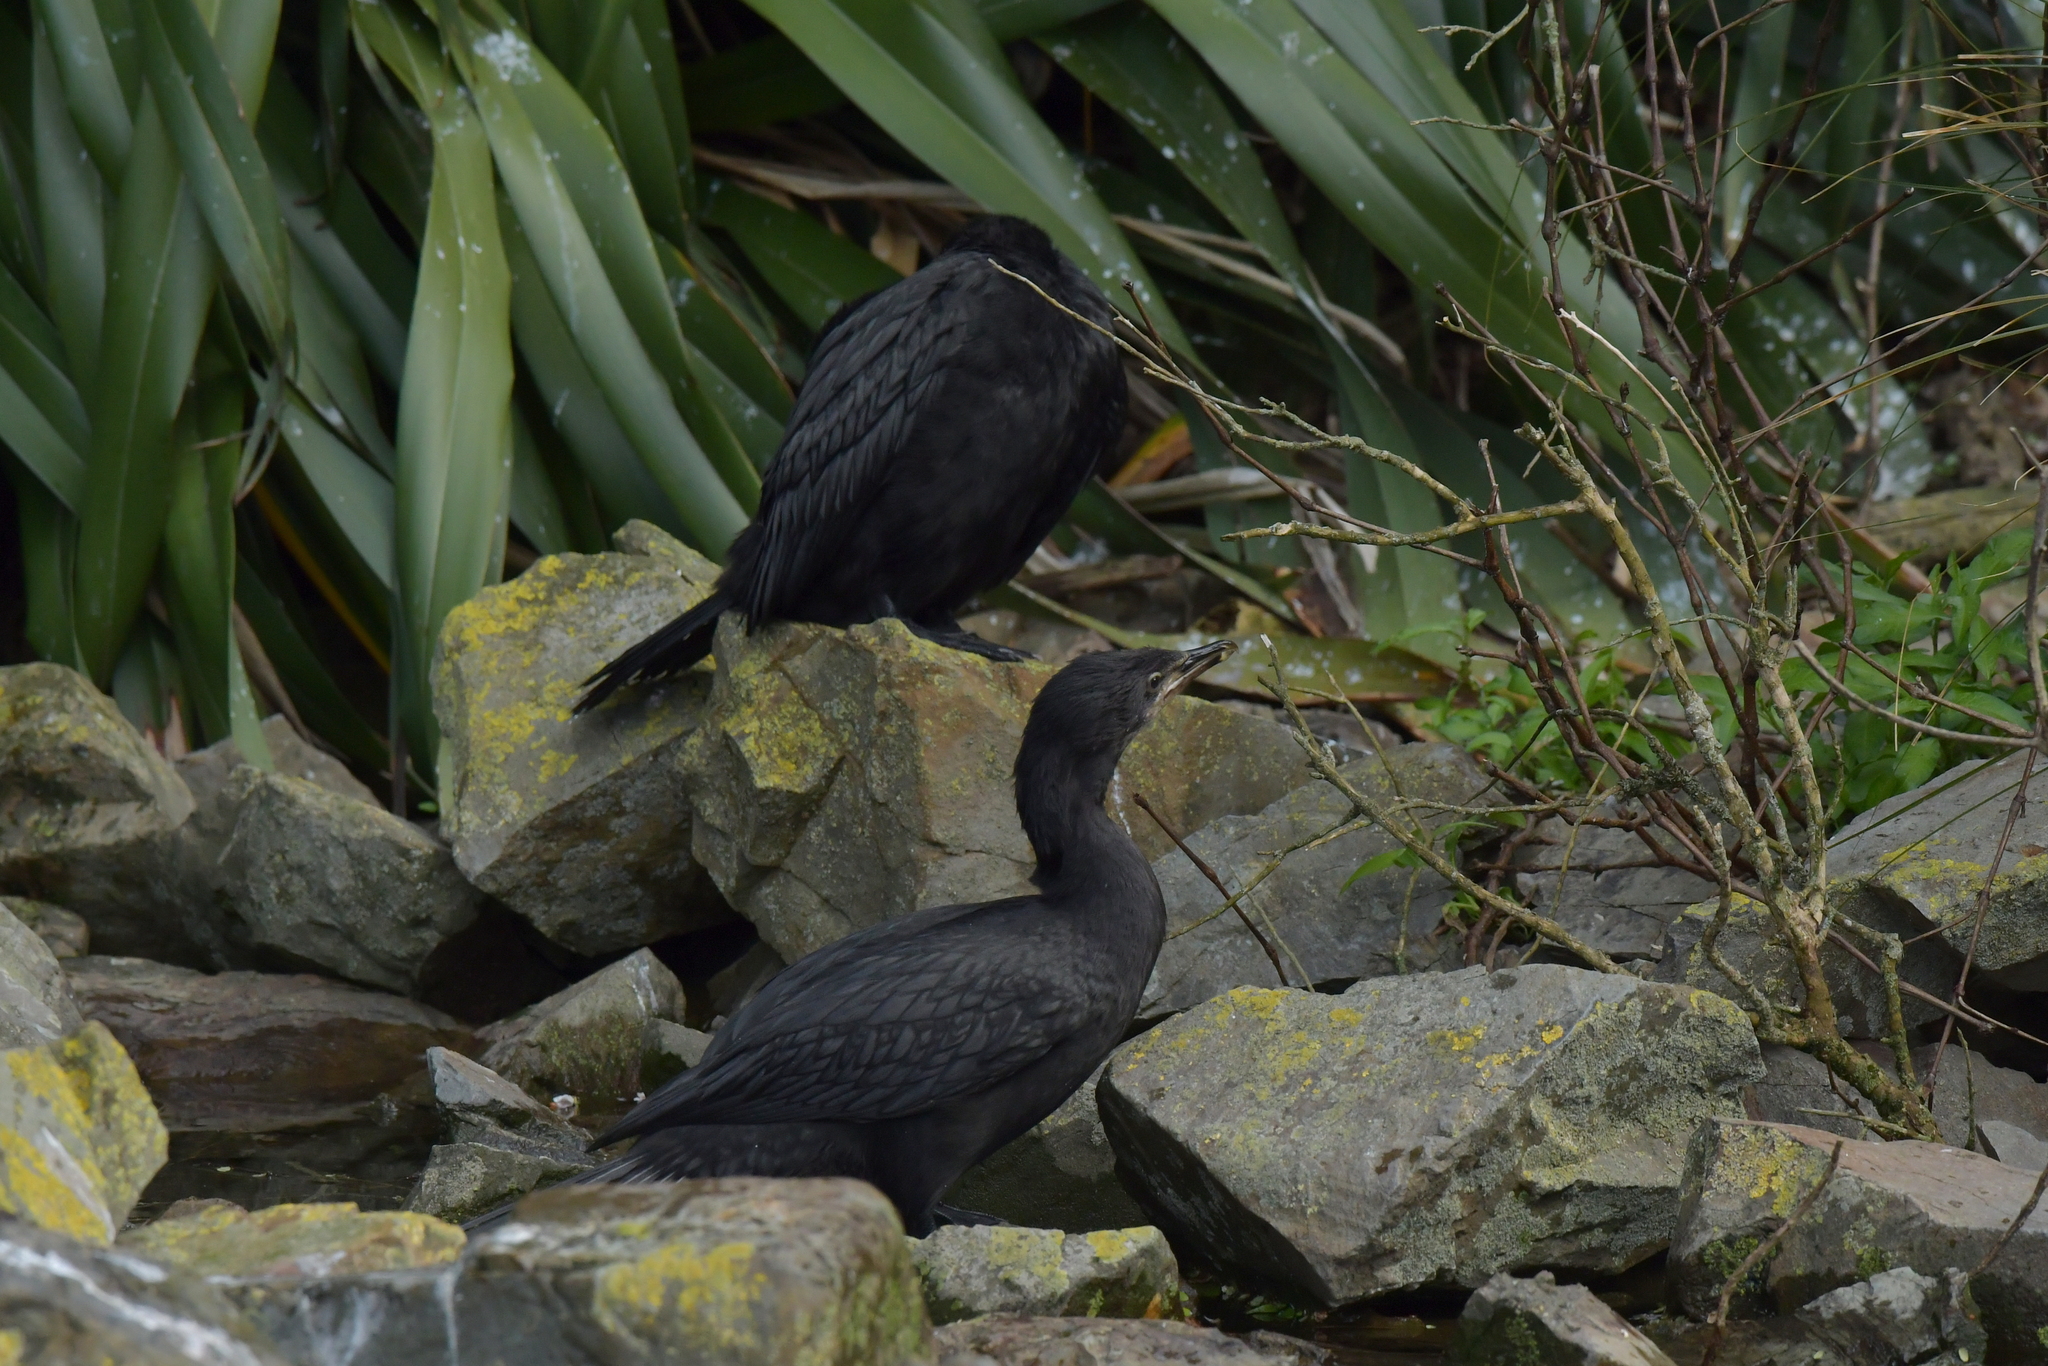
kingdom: Animalia
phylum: Chordata
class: Aves
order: Suliformes
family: Phalacrocoracidae
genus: Microcarbo
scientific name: Microcarbo melanoleucos
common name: Little pied cormorant
